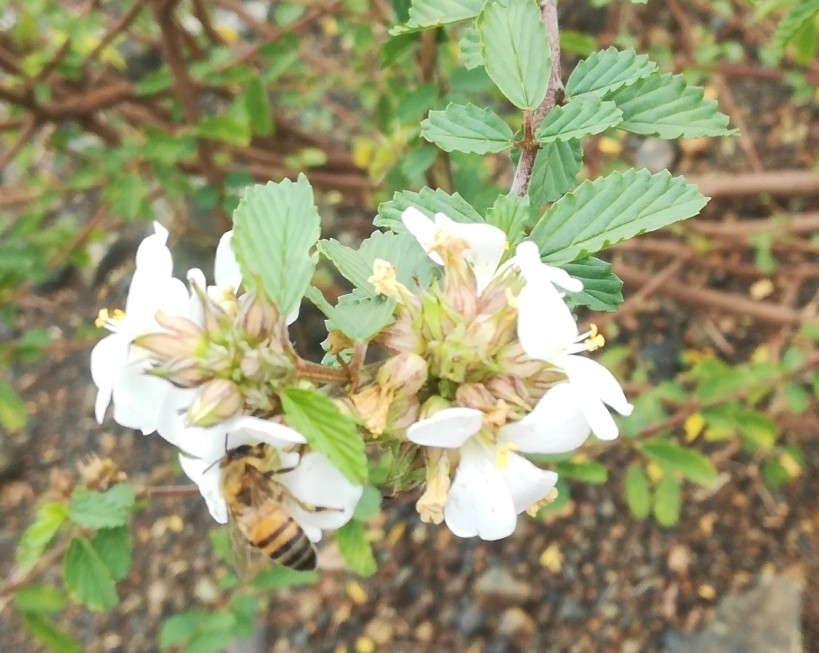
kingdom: Animalia
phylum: Arthropoda
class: Insecta
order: Hymenoptera
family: Apidae
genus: Apis
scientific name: Apis mellifera
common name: Honey bee
